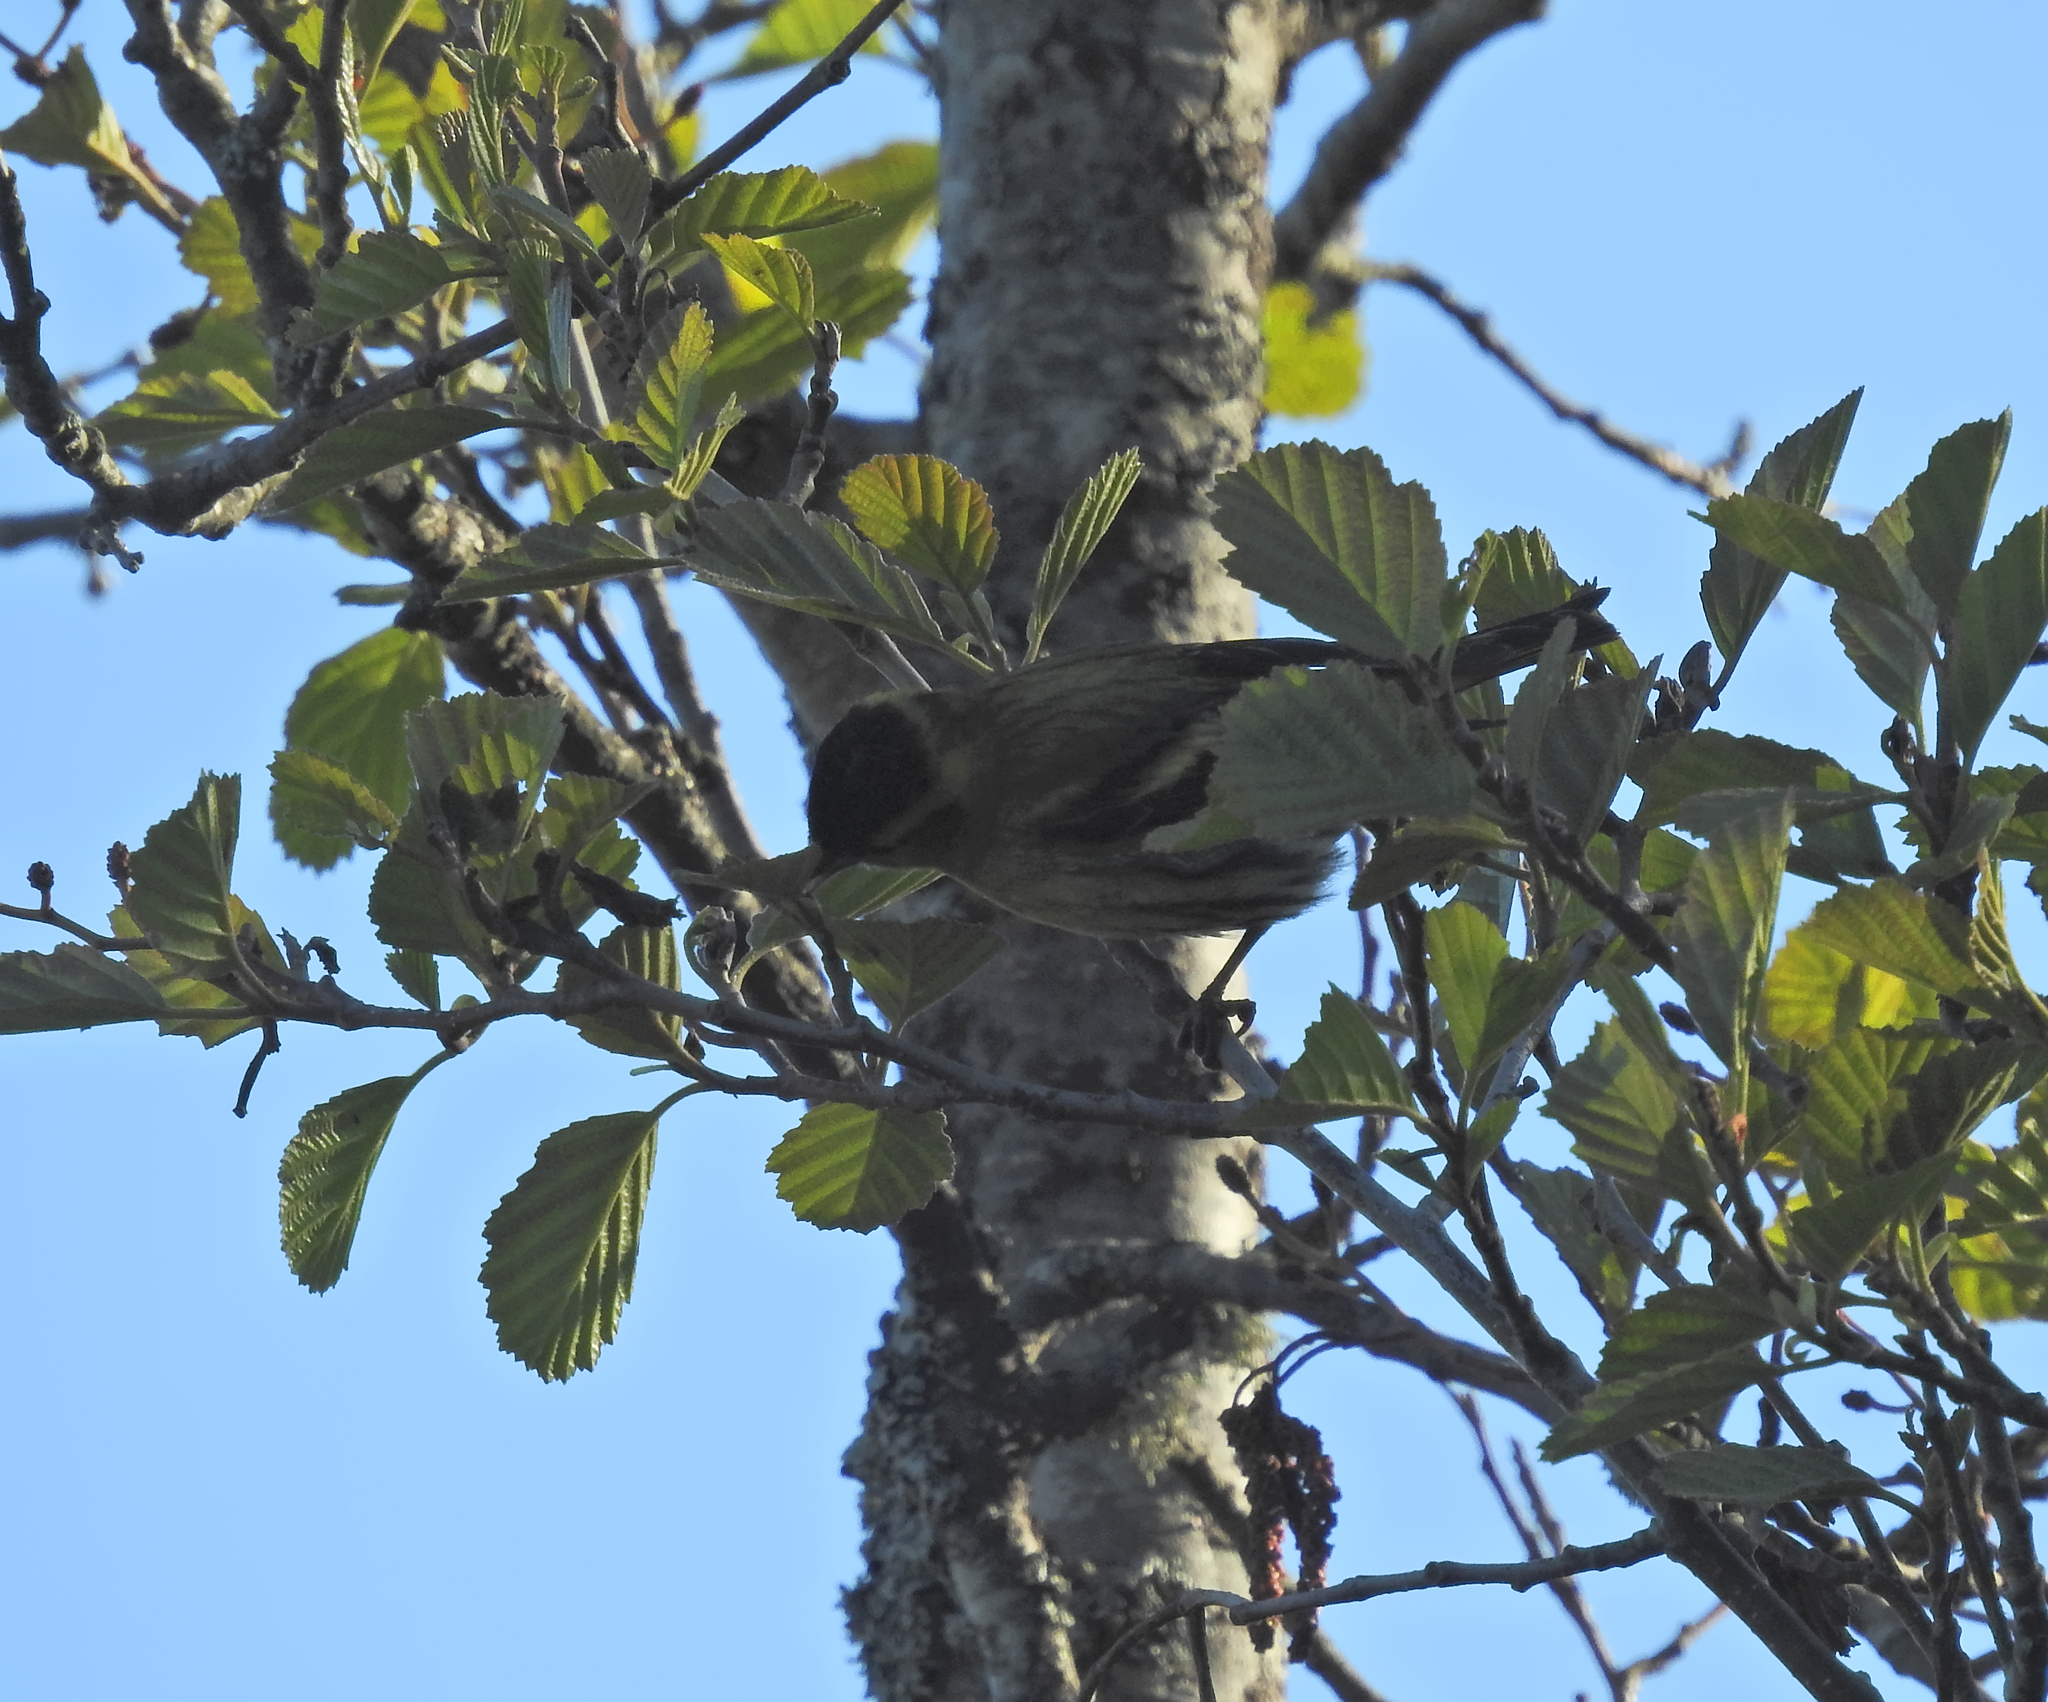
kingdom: Animalia
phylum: Chordata
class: Aves
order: Passeriformes
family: Fringillidae
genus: Spinus
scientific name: Spinus spinus
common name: Eurasian siskin
